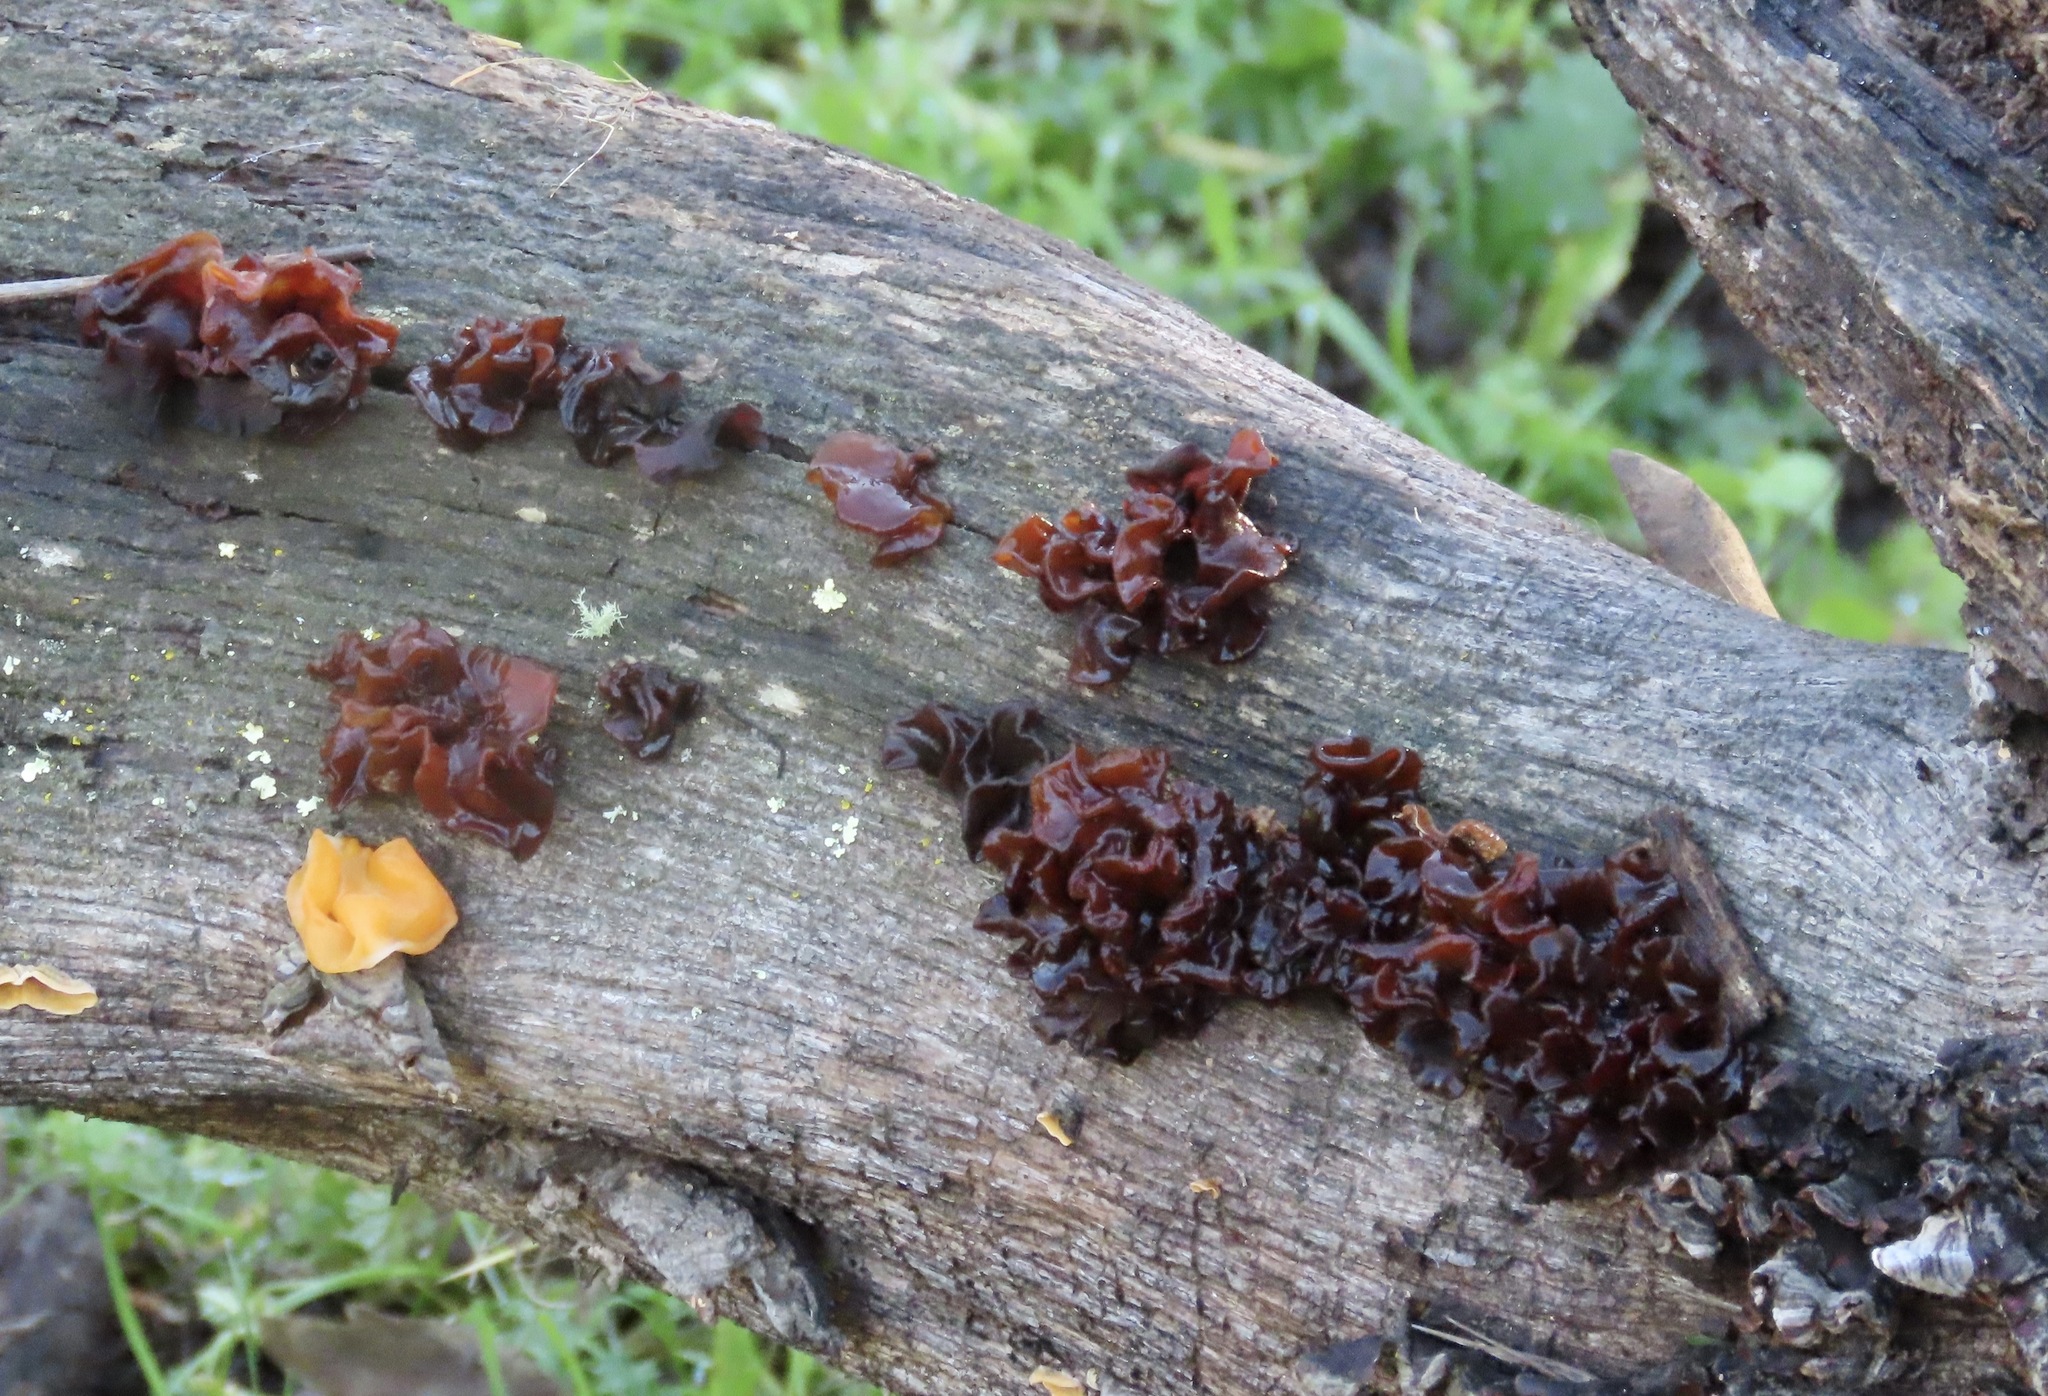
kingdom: Fungi
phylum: Basidiomycota
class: Tremellomycetes
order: Tremellales
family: Tremellaceae
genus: Phaeotremella
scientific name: Phaeotremella foliacea
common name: Leafy brain
